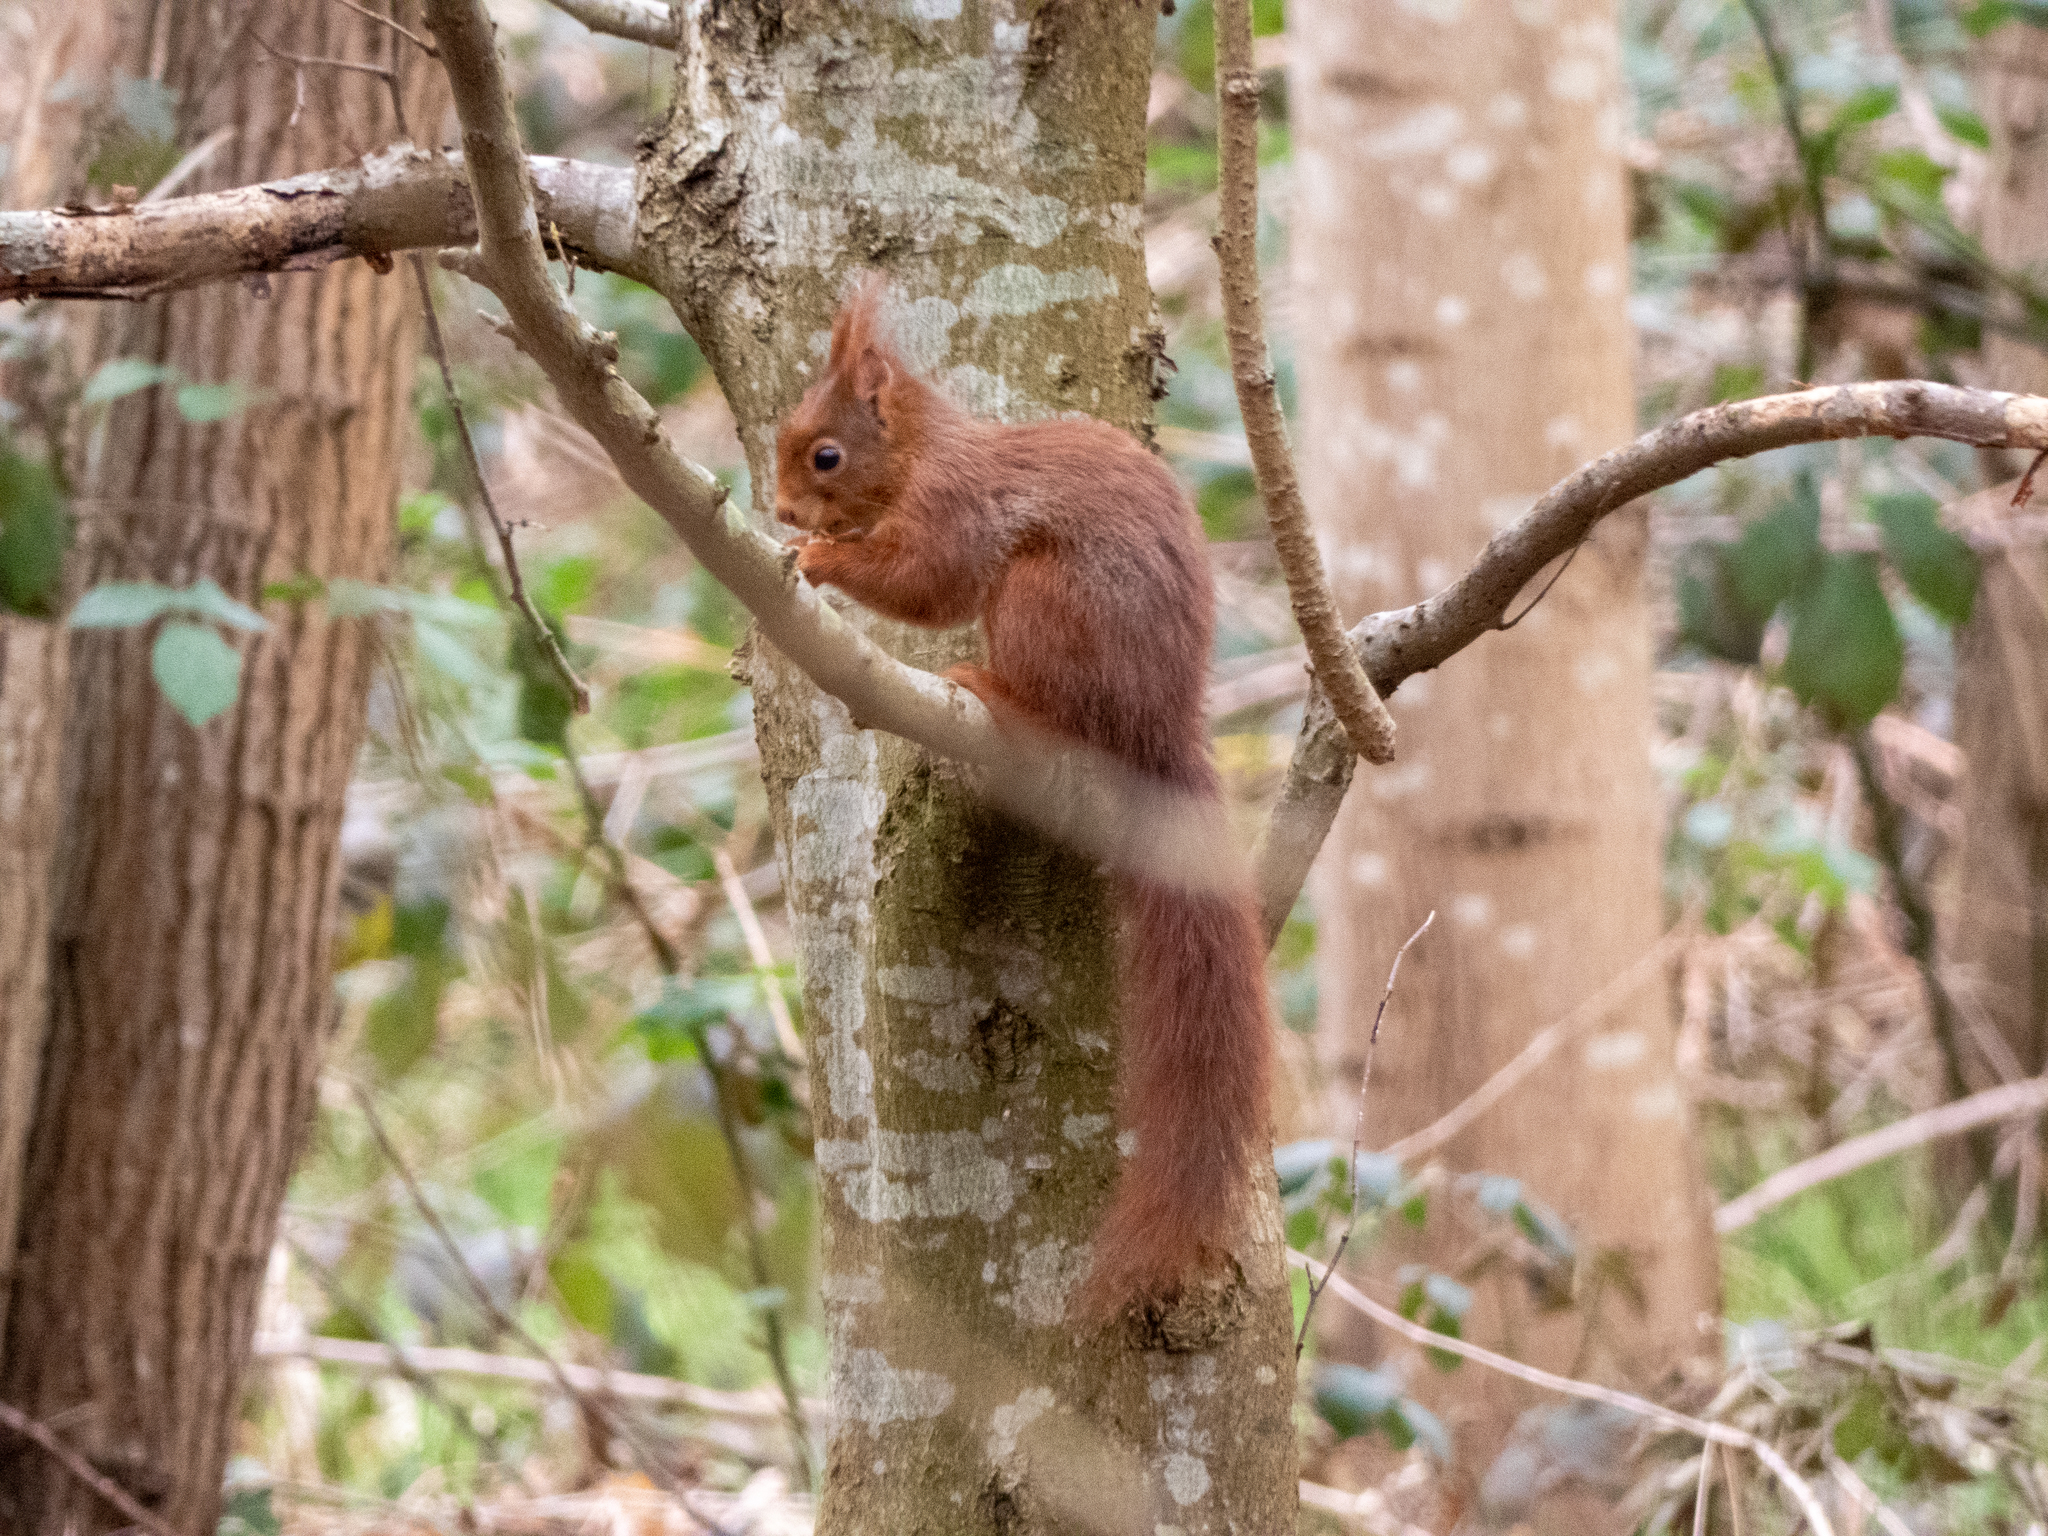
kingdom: Animalia
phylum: Chordata
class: Mammalia
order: Rodentia
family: Sciuridae
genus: Sciurus
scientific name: Sciurus vulgaris
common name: Eurasian red squirrel
